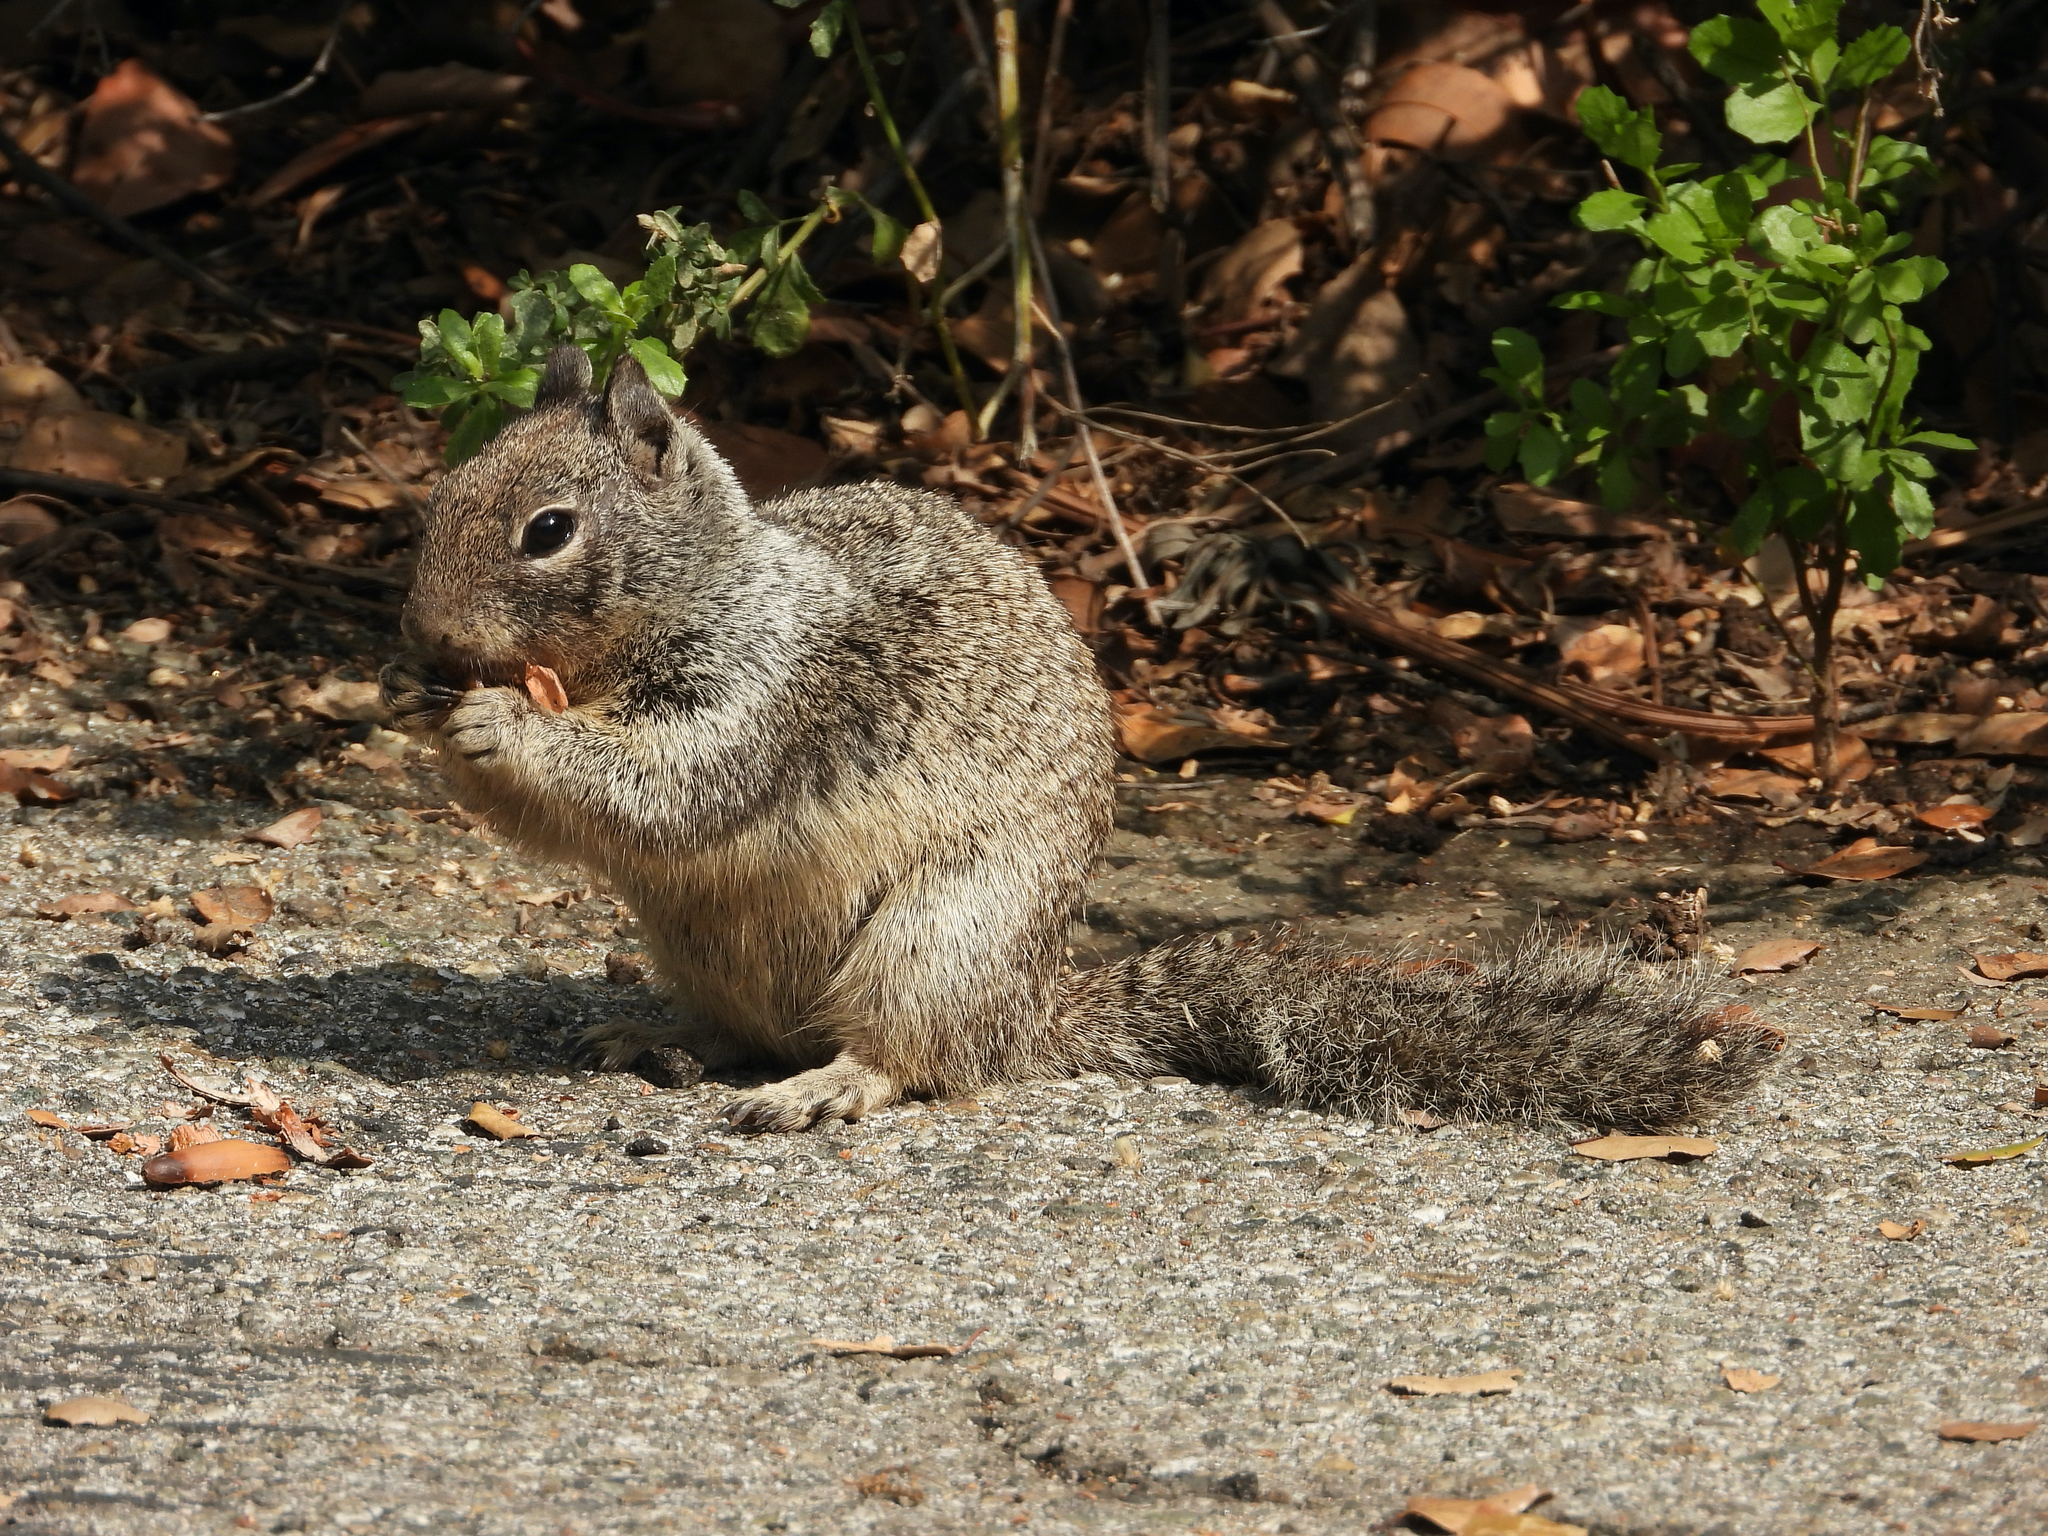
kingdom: Animalia
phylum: Chordata
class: Mammalia
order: Rodentia
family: Sciuridae
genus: Otospermophilus
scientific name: Otospermophilus beecheyi
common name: California ground squirrel
